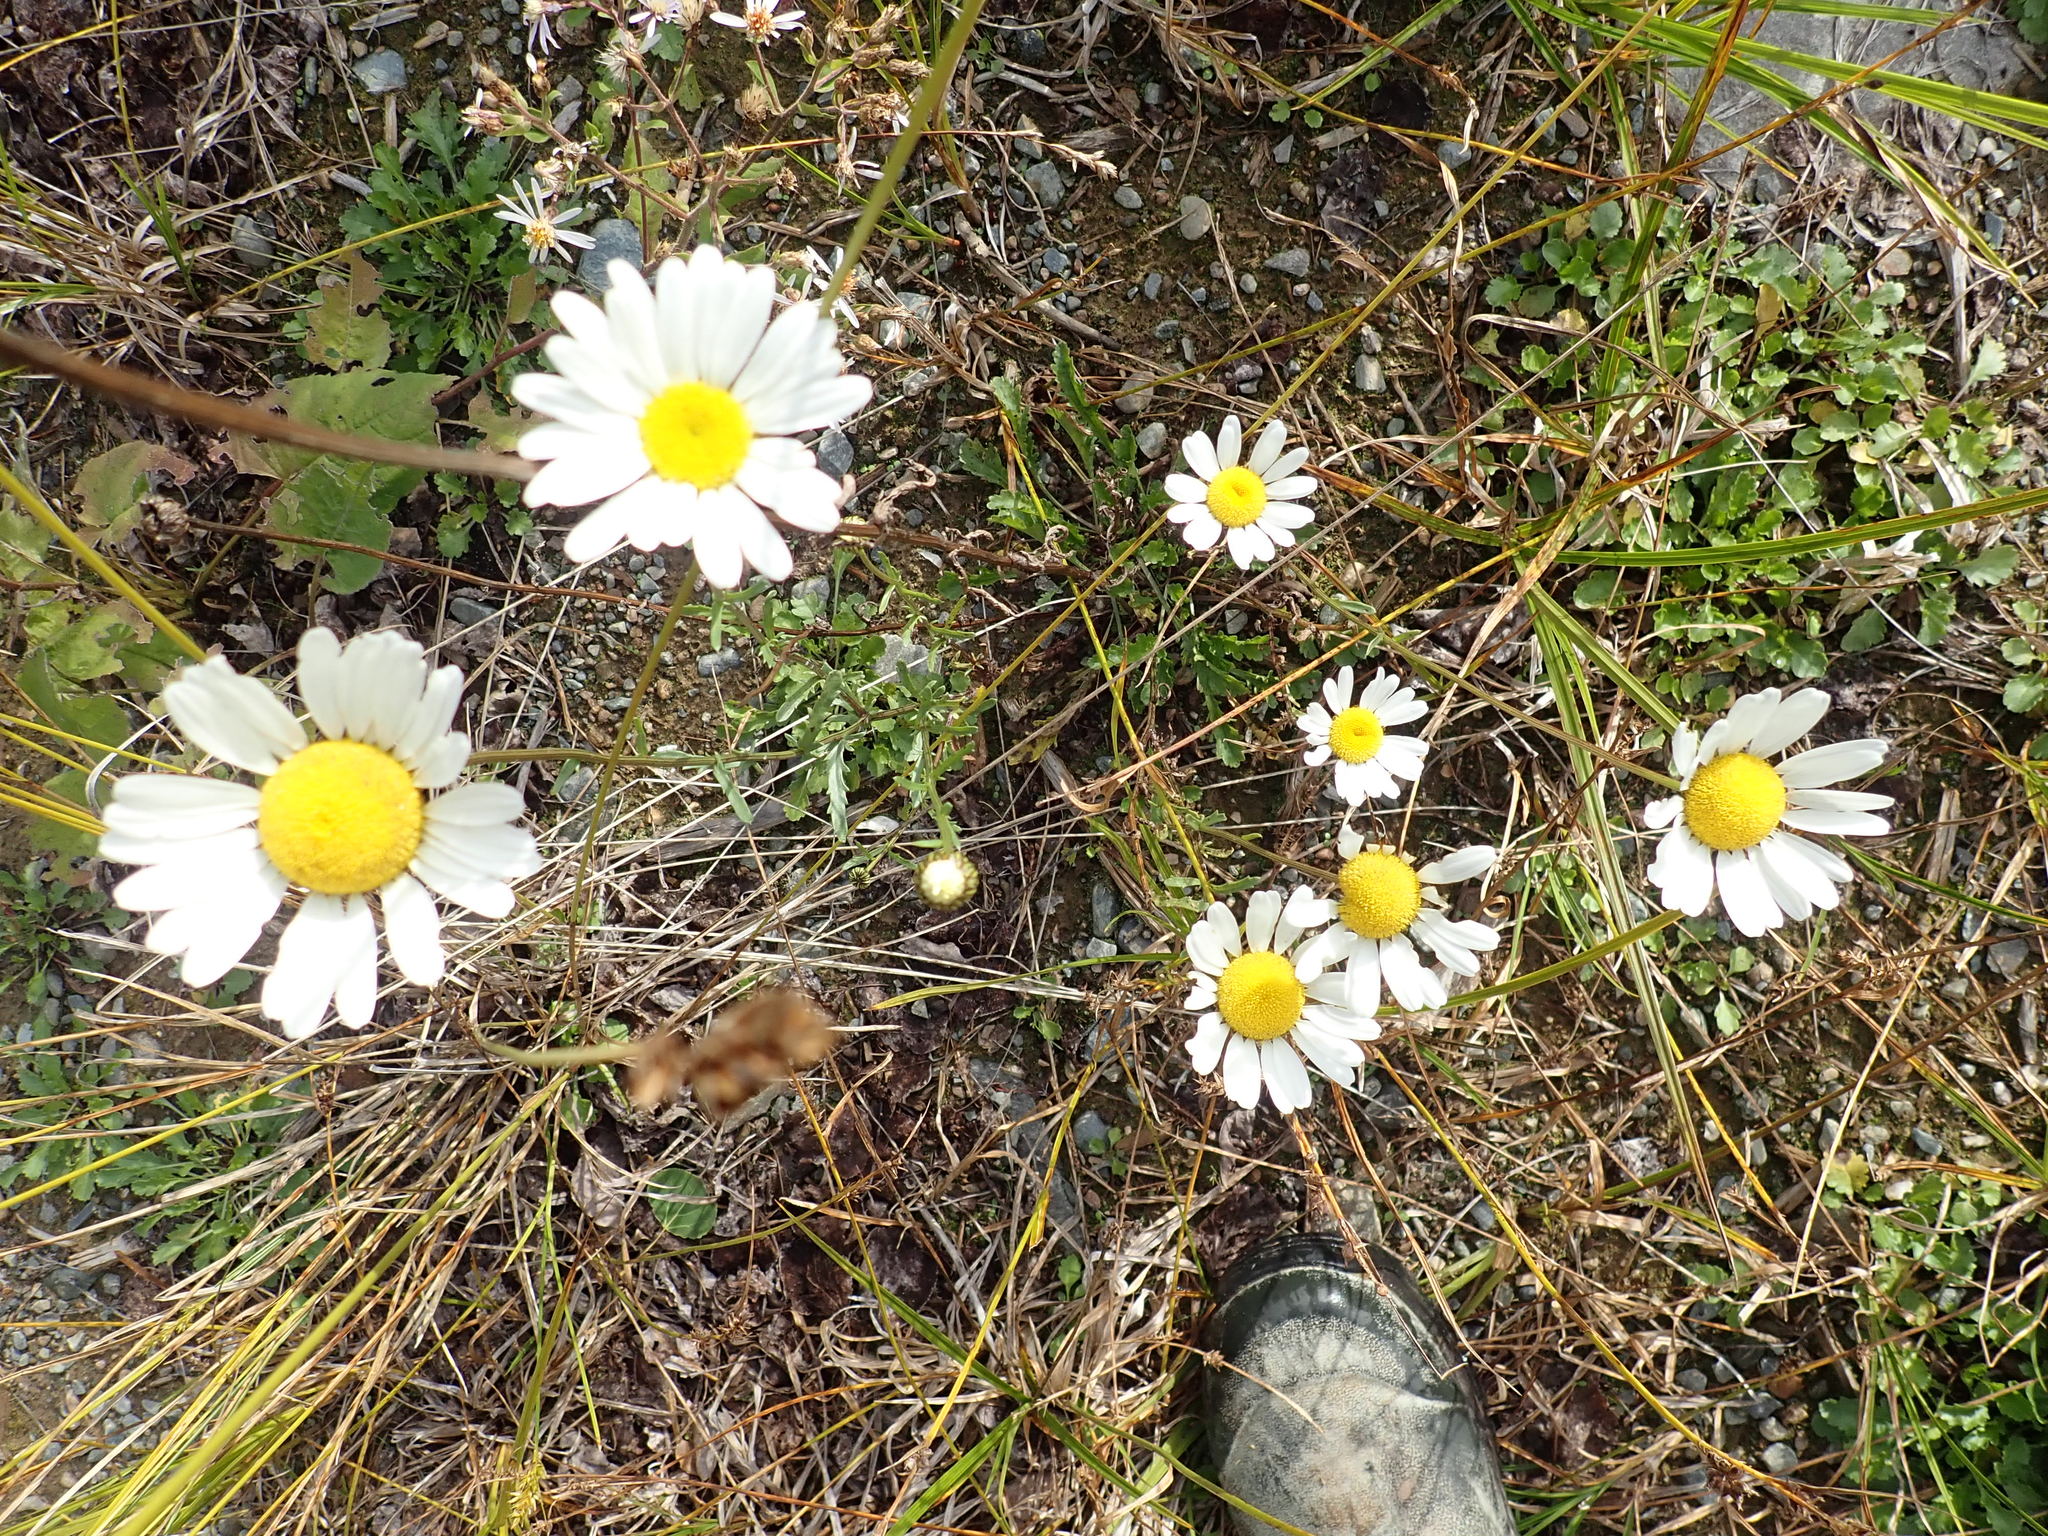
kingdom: Plantae
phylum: Tracheophyta
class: Magnoliopsida
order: Asterales
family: Asteraceae
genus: Leucanthemum
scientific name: Leucanthemum vulgare
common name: Oxeye daisy
